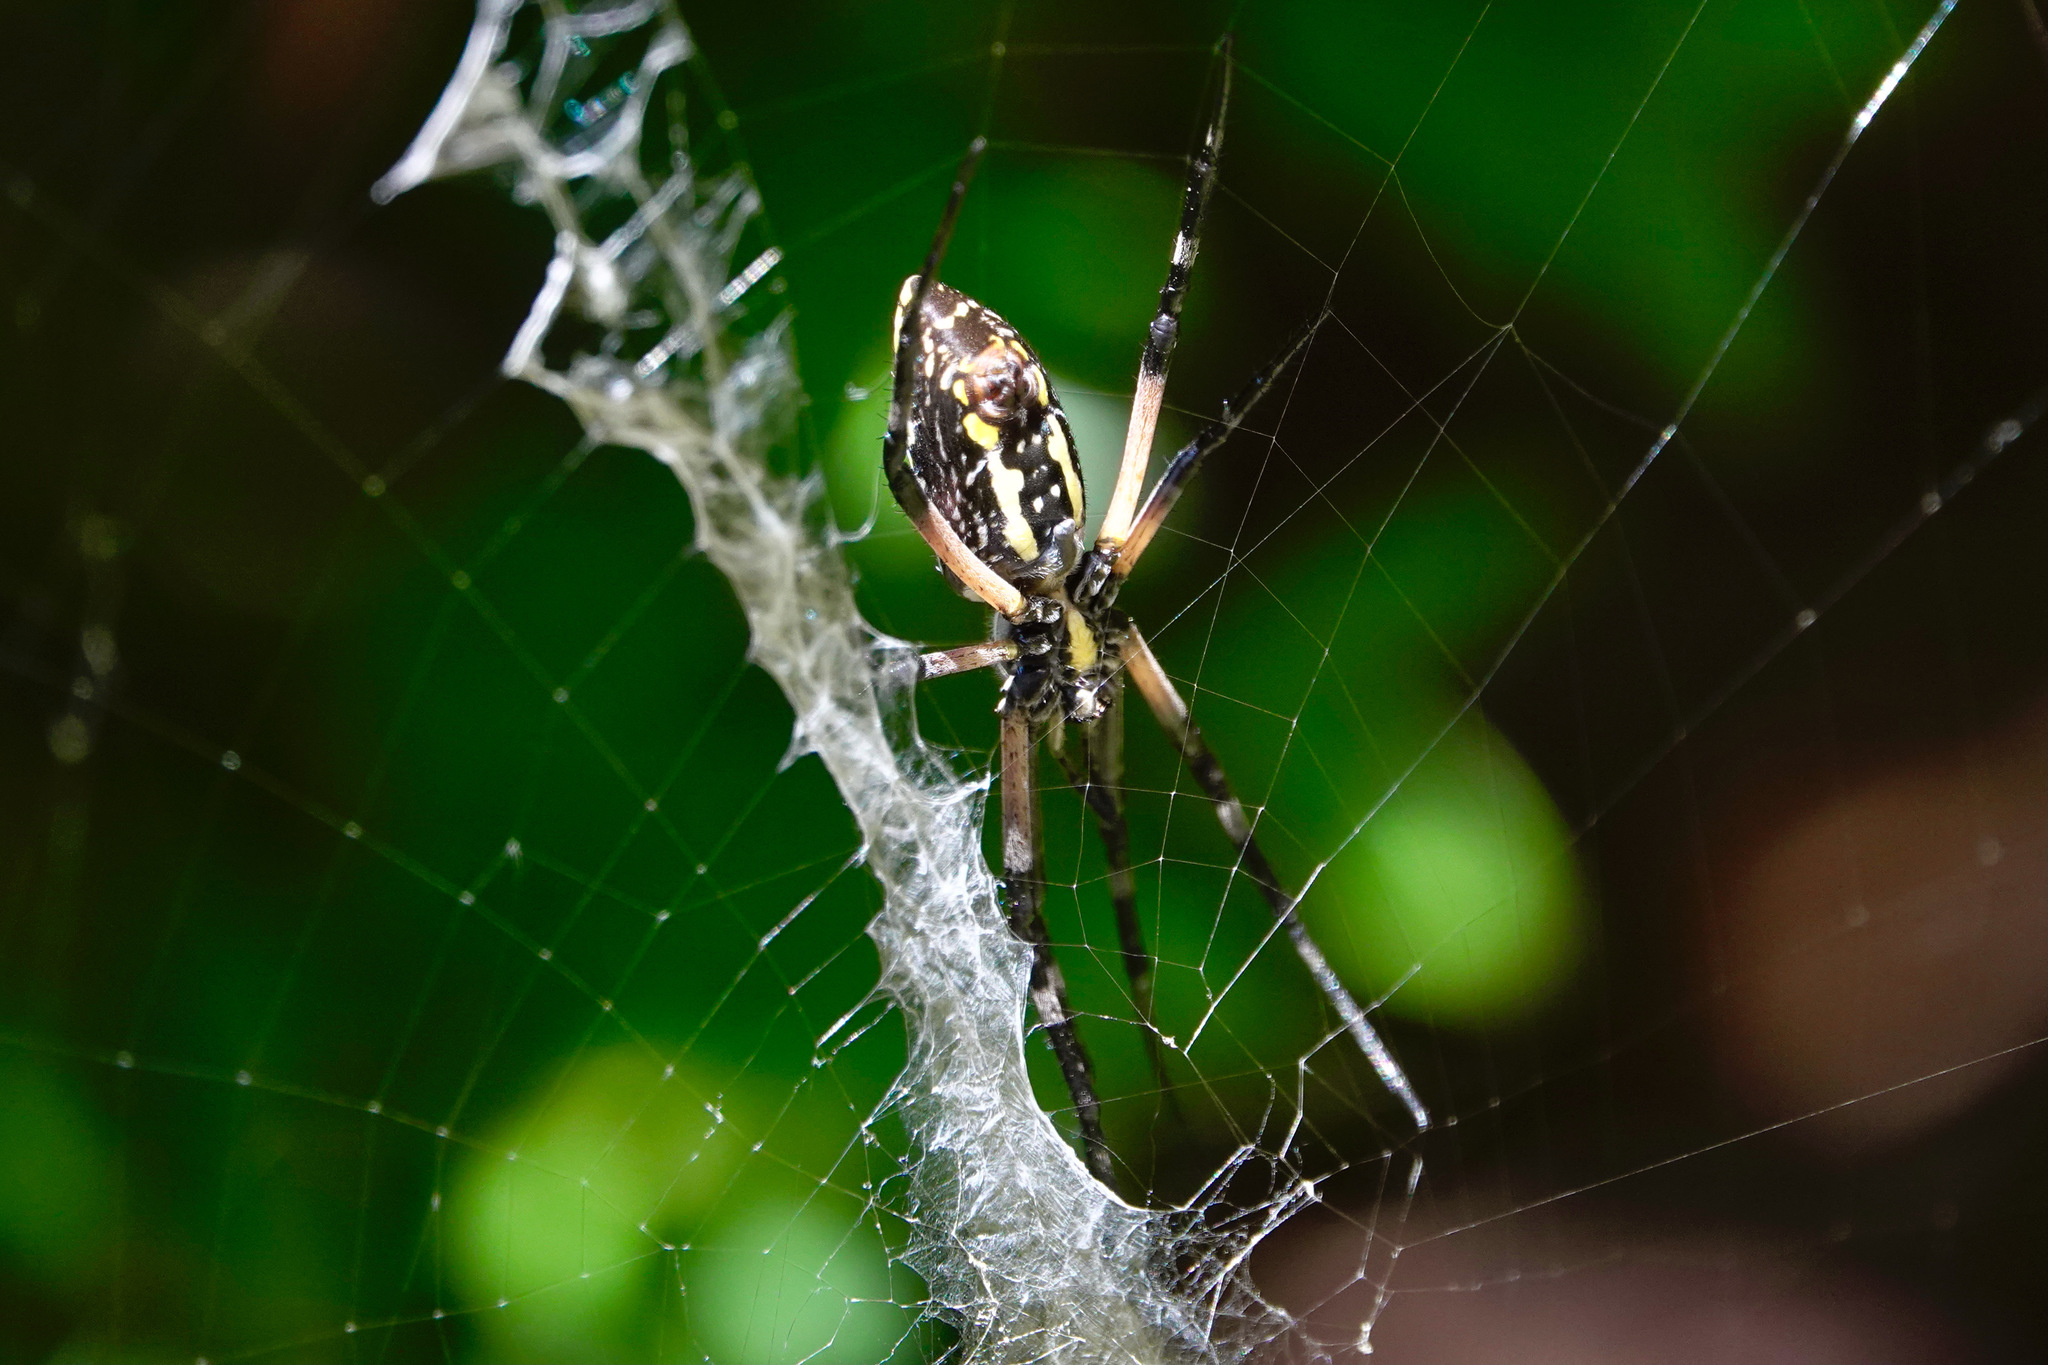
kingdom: Animalia
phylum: Arthropoda
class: Arachnida
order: Araneae
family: Araneidae
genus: Argiope
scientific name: Argiope aurantia
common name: Orb weavers
